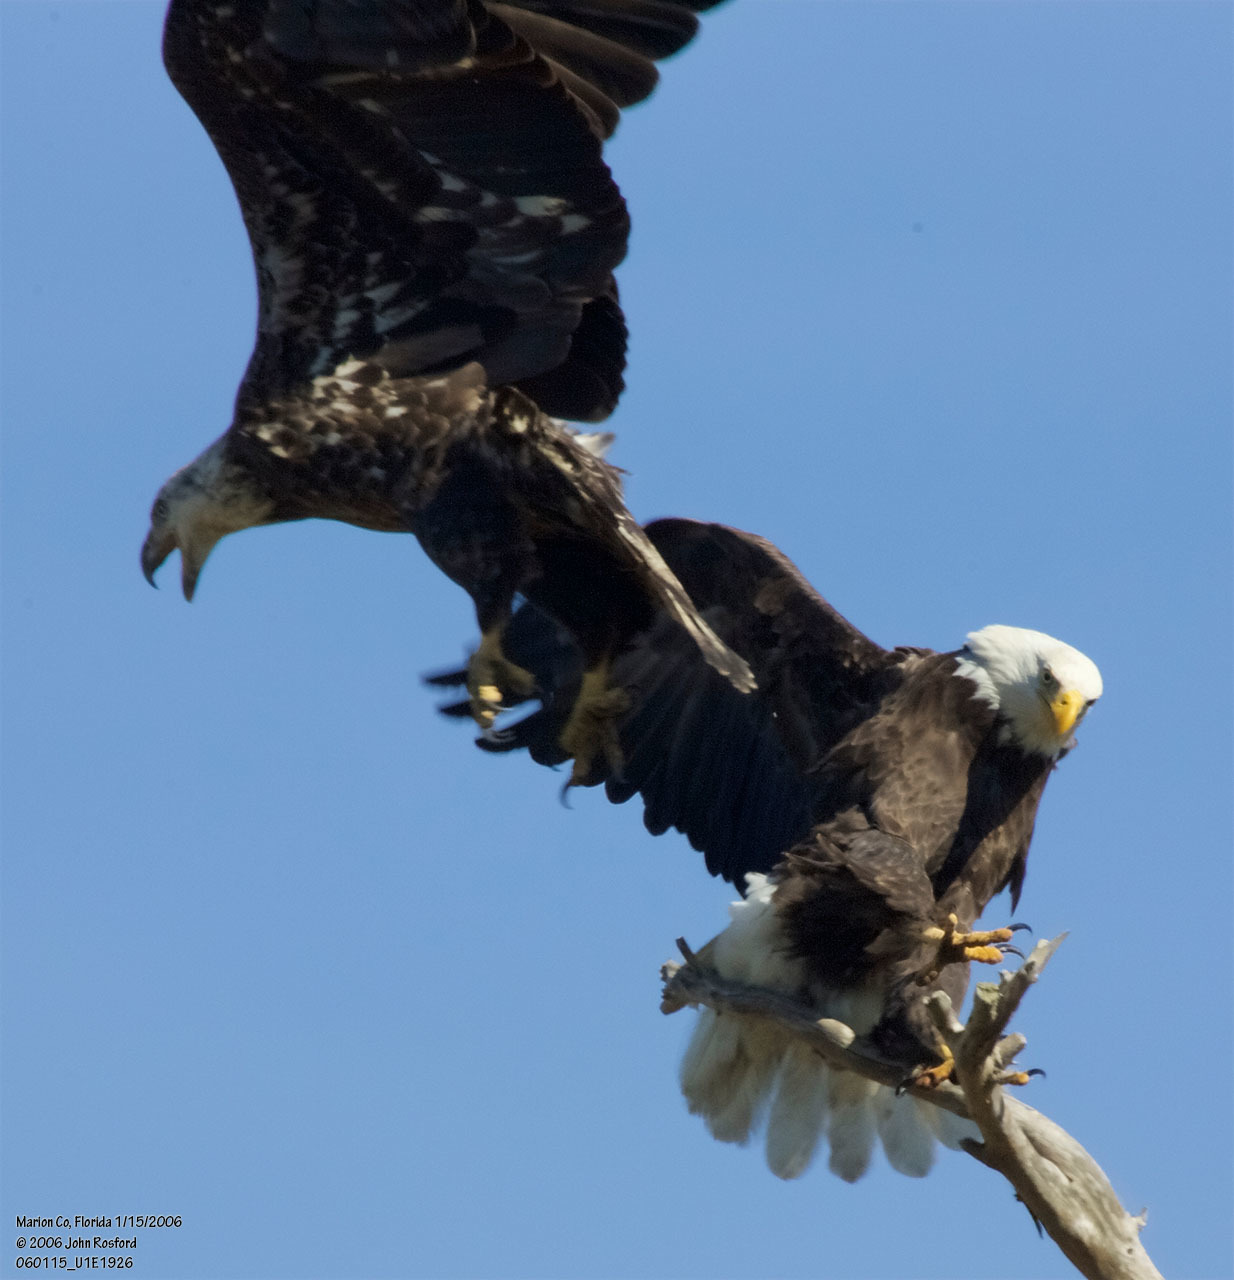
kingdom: Animalia
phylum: Chordata
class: Aves
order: Accipitriformes
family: Accipitridae
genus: Haliaeetus
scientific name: Haliaeetus leucocephalus
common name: Bald eagle
